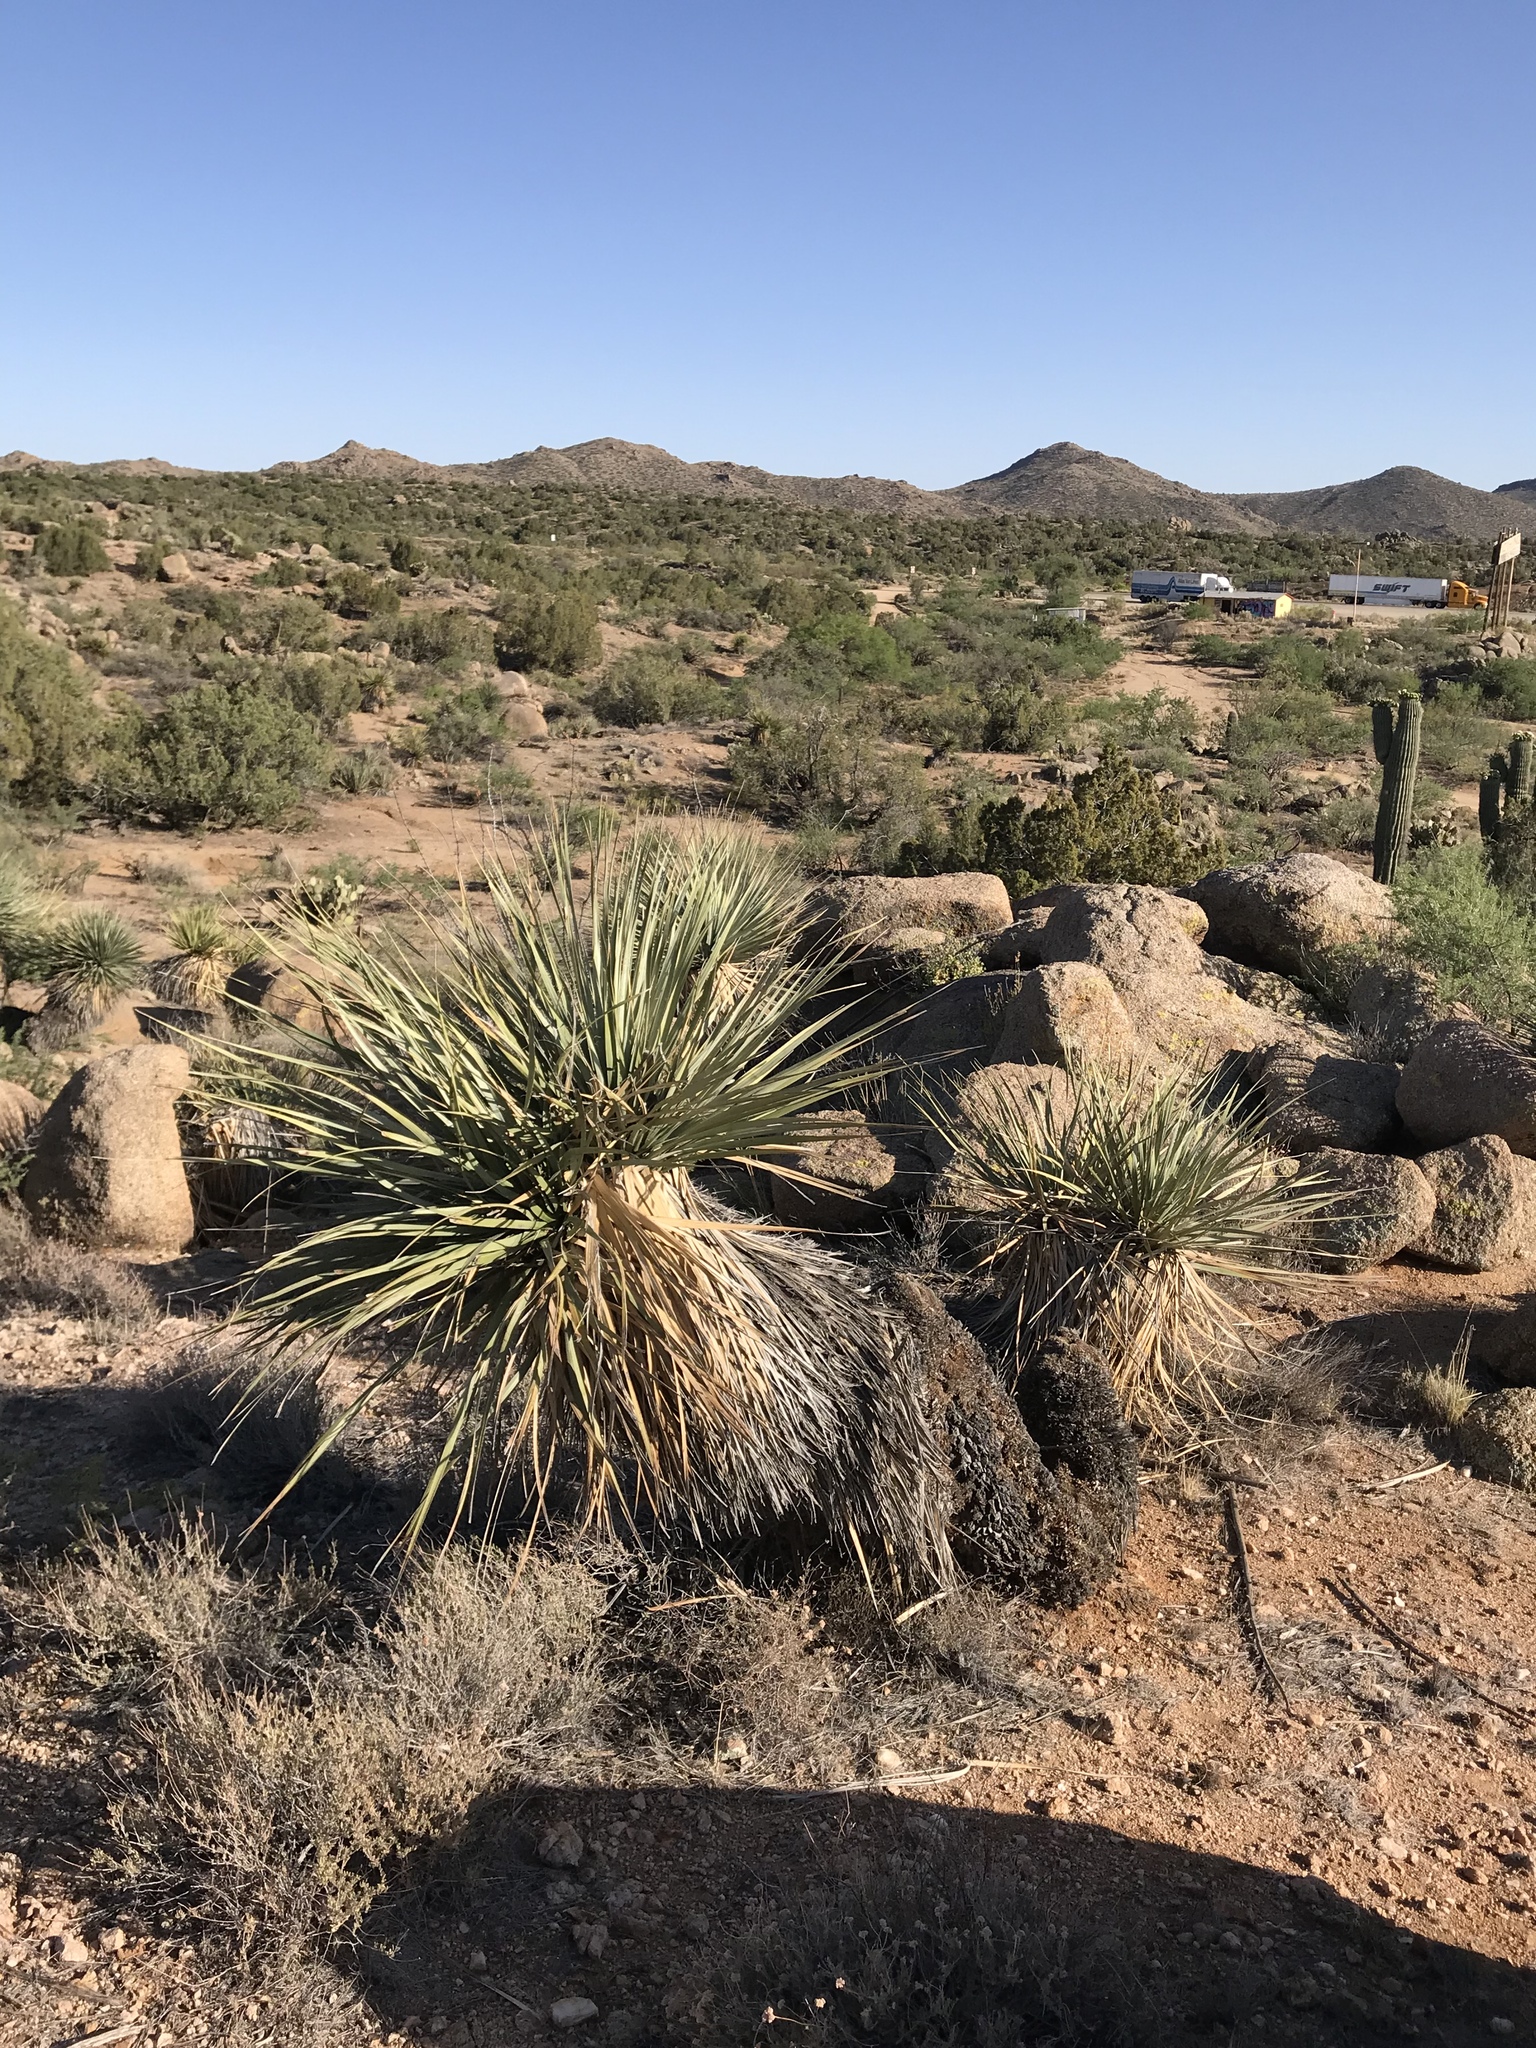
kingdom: Plantae
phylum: Tracheophyta
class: Liliopsida
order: Asparagales
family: Asparagaceae
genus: Nolina
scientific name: Nolina bigelovii
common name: Bigelow bear-grass
